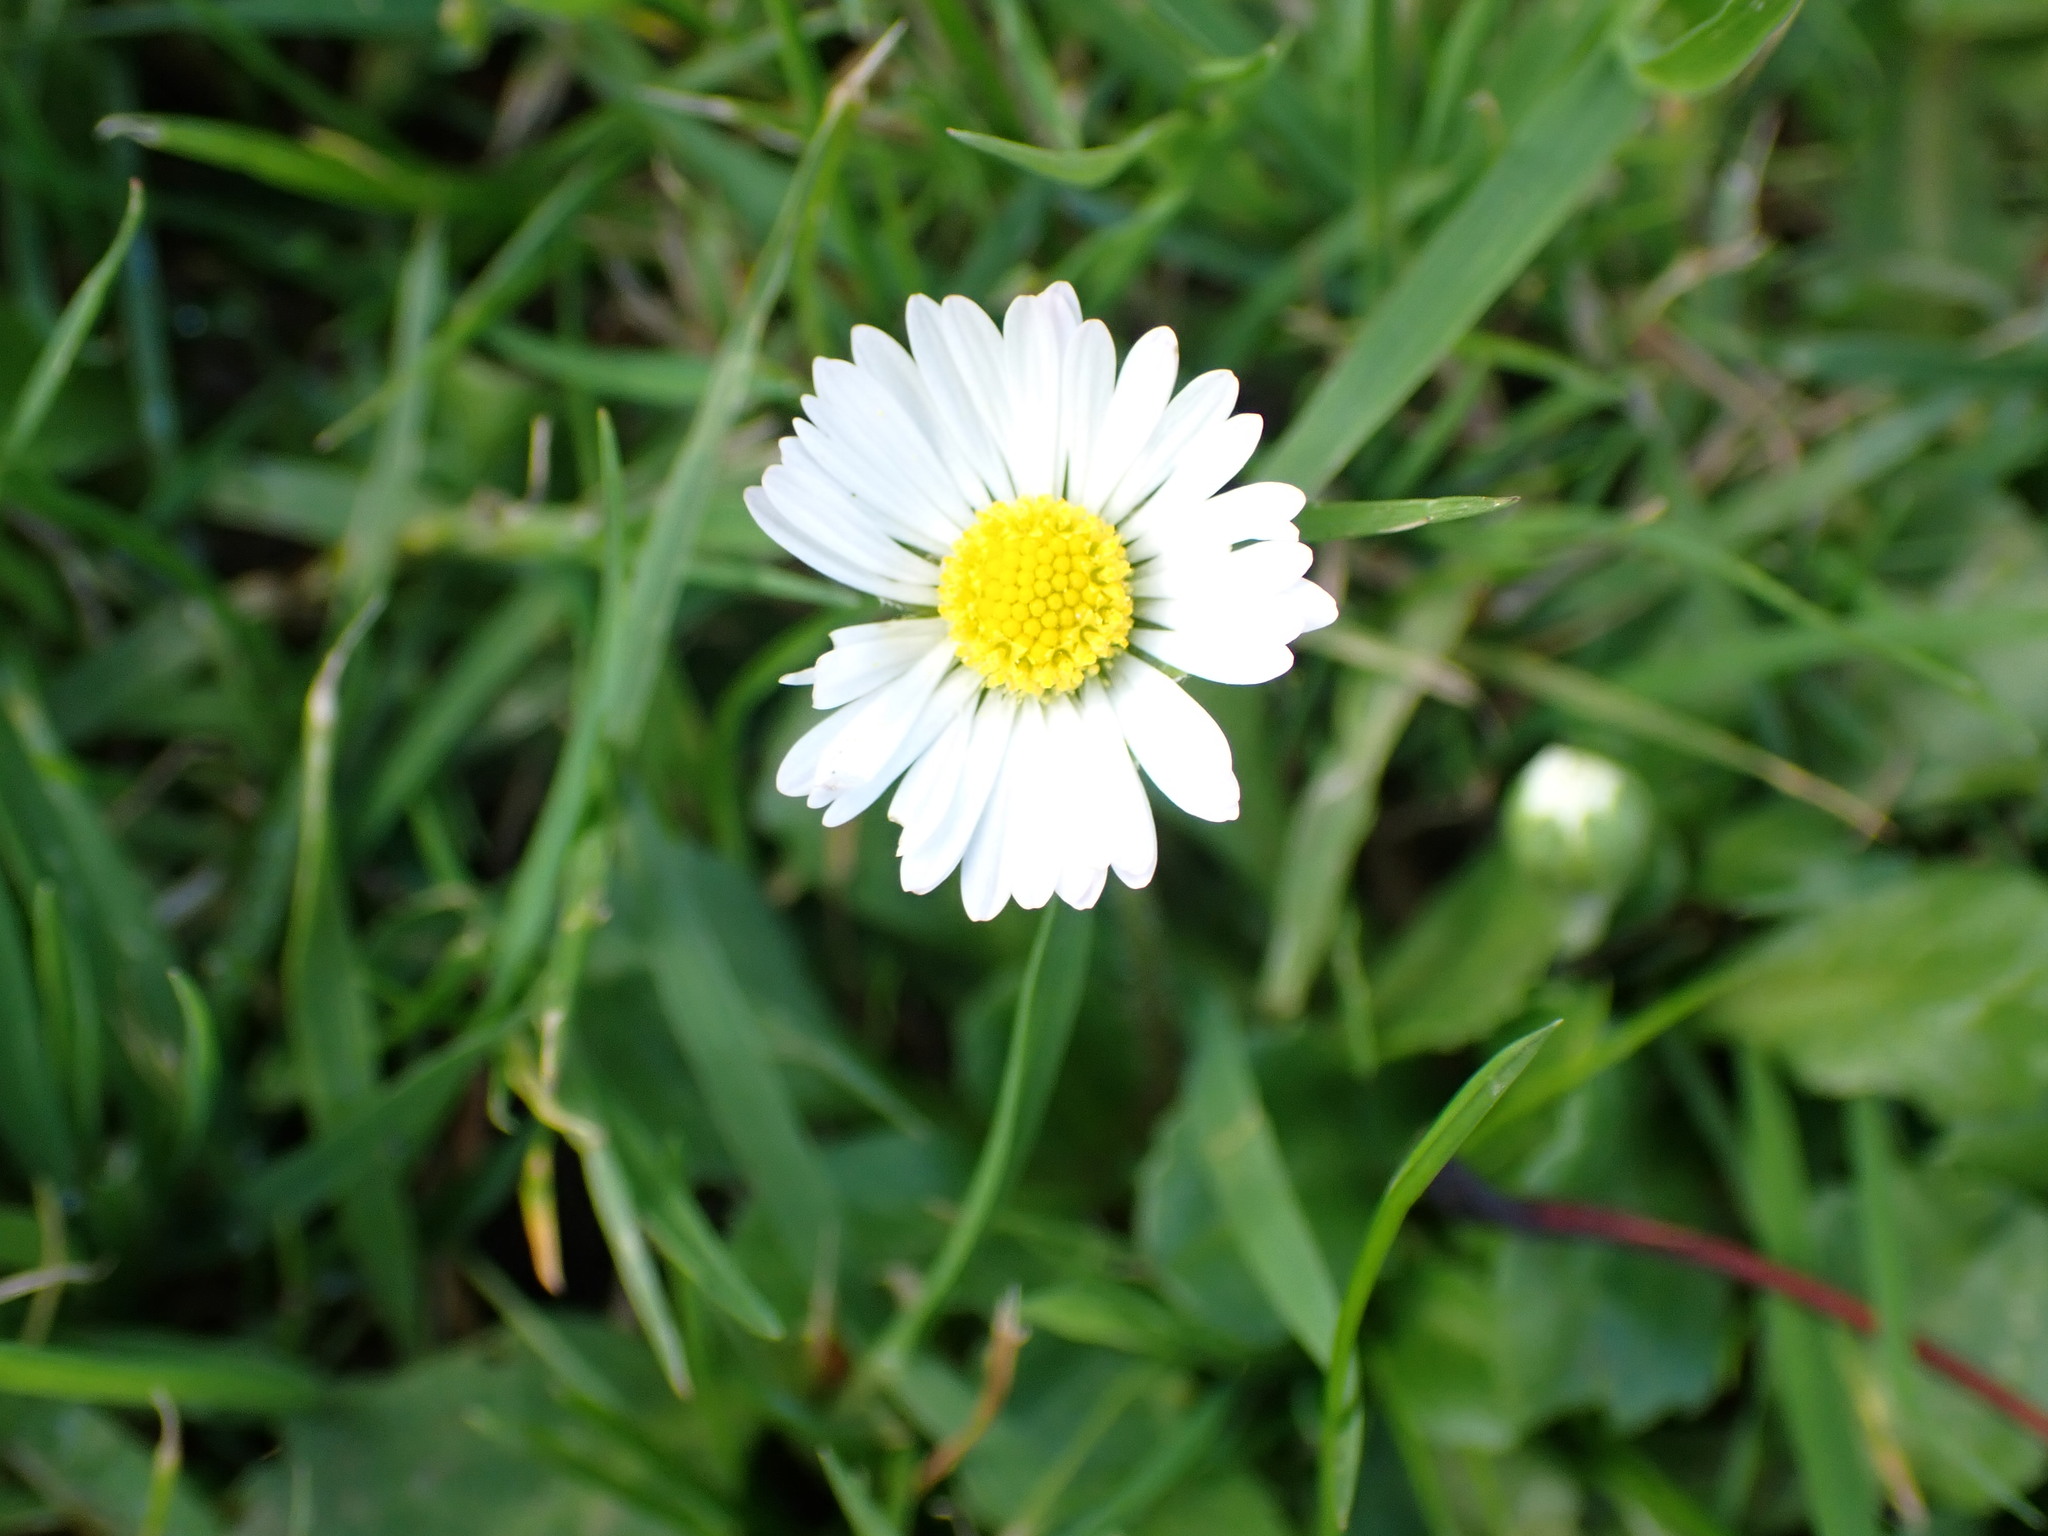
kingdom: Plantae
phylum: Tracheophyta
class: Magnoliopsida
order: Asterales
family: Asteraceae
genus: Bellis
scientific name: Bellis perennis
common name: Lawndaisy
